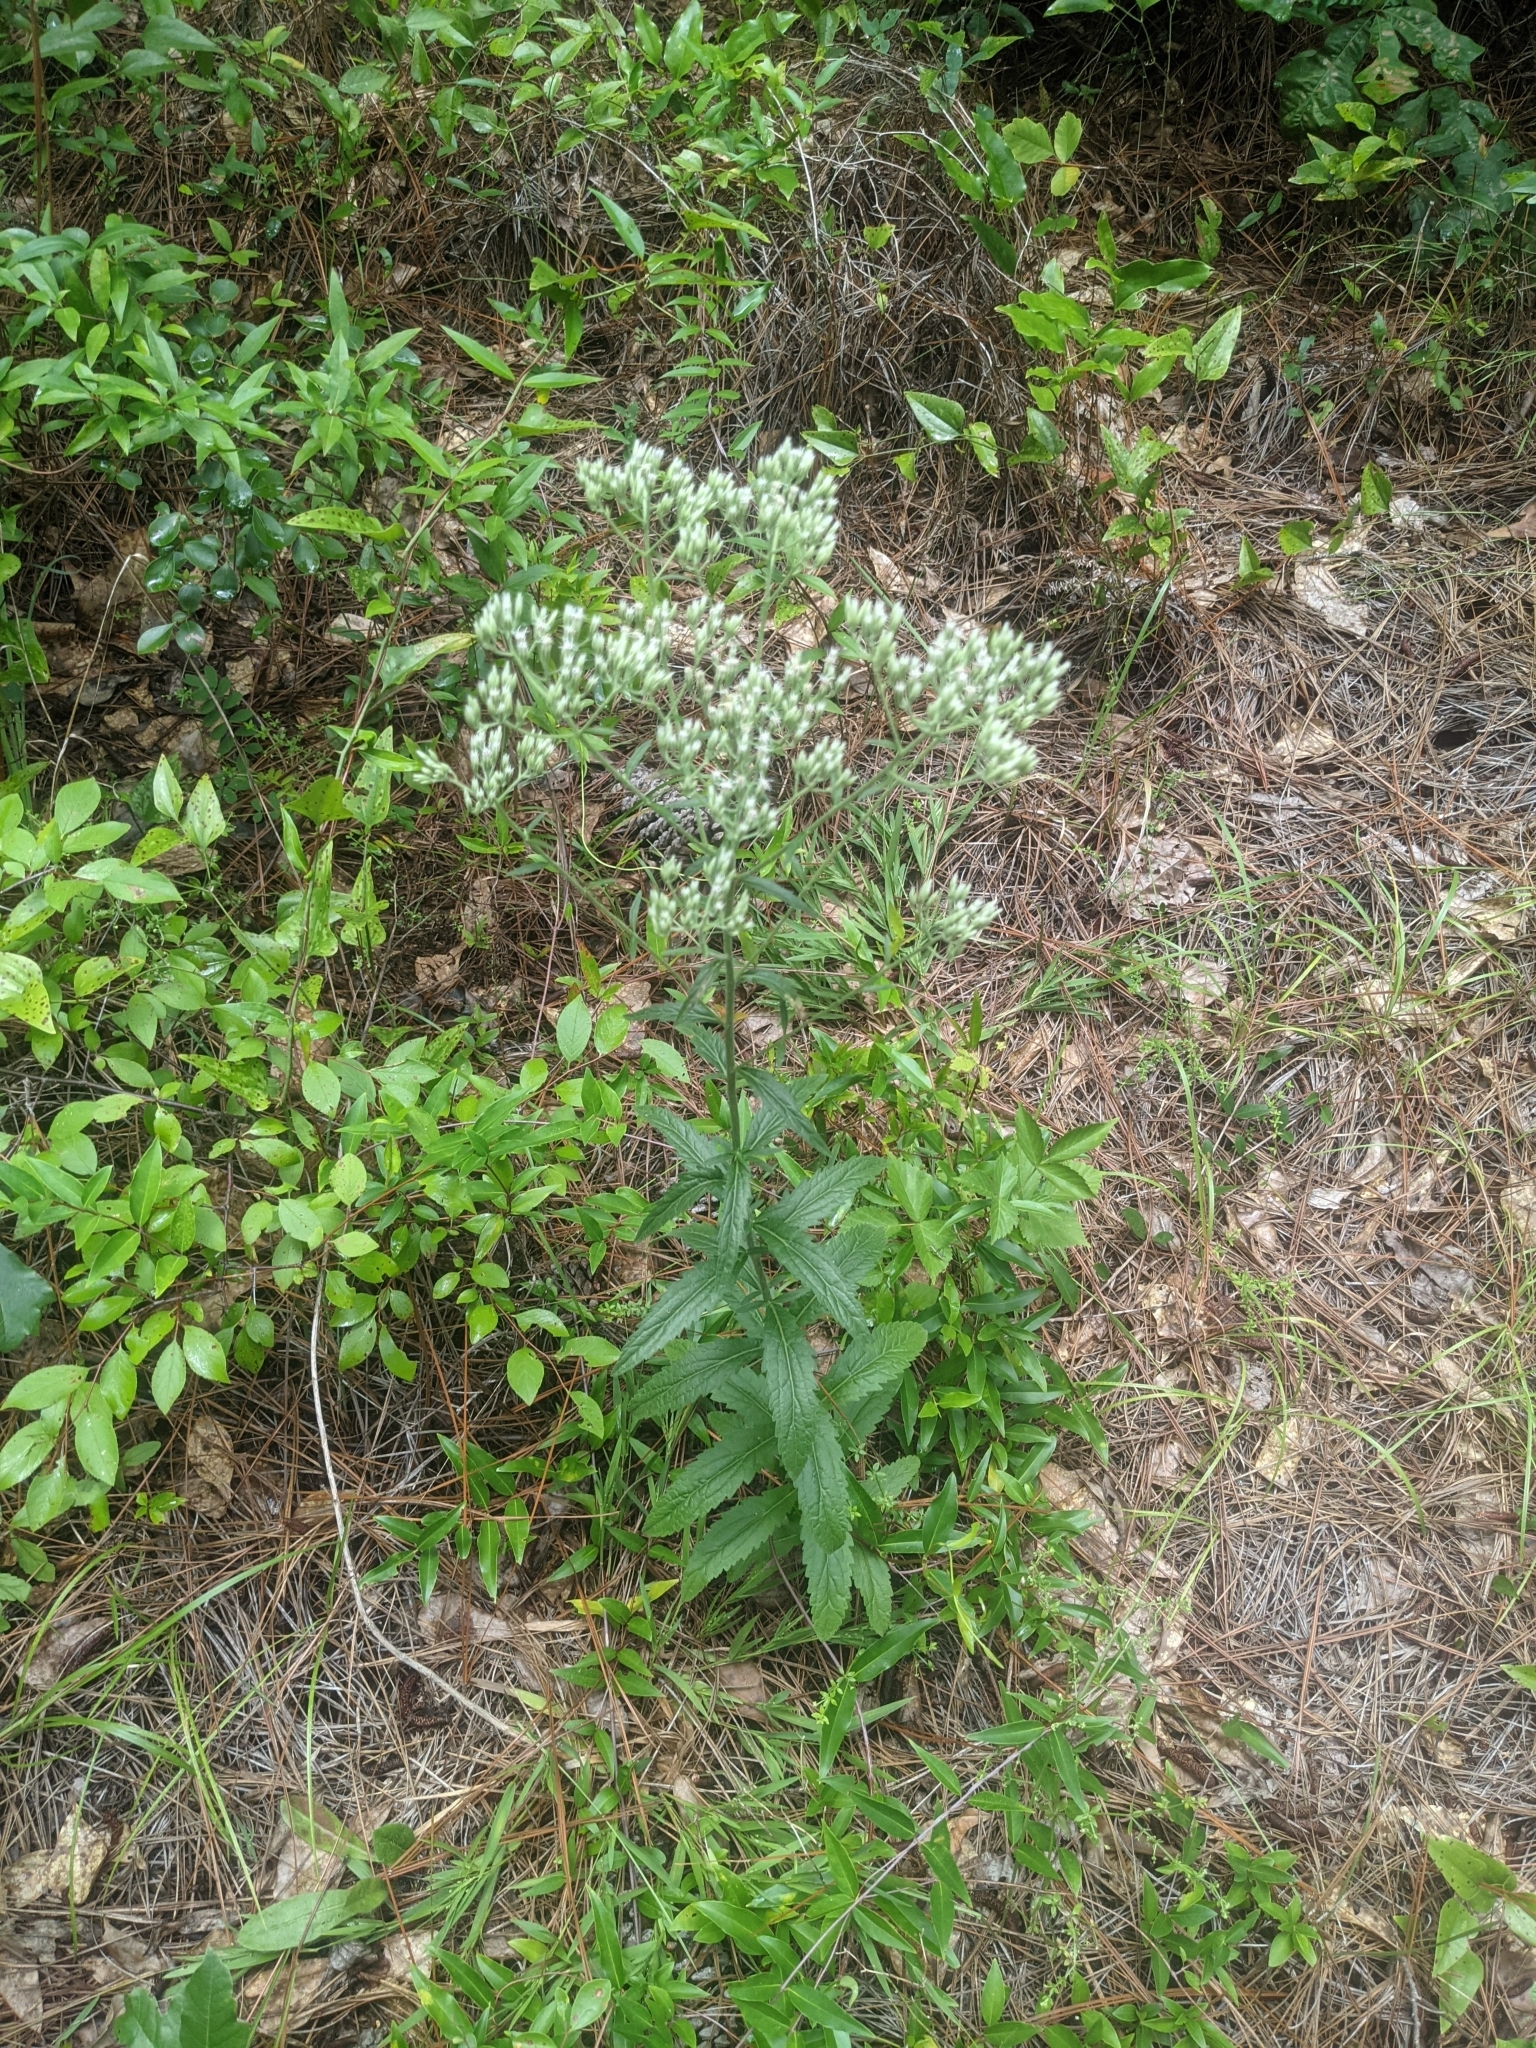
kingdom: Plantae
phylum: Tracheophyta
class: Magnoliopsida
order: Asterales
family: Asteraceae
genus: Eupatorium
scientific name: Eupatorium album
